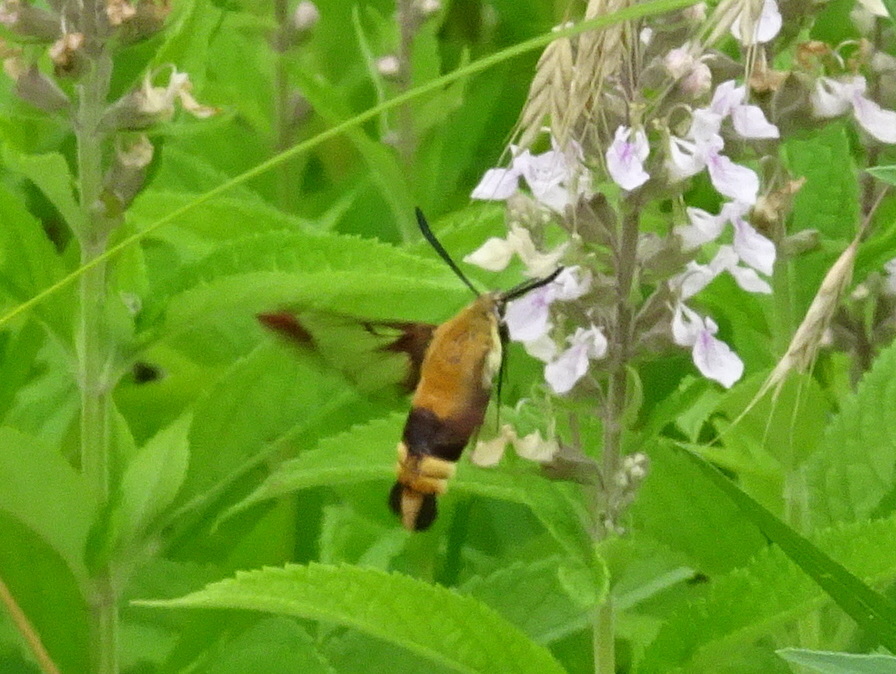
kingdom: Animalia
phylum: Arthropoda
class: Insecta
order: Lepidoptera
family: Sphingidae
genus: Hemaris
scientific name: Hemaris diffinis
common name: Bumblebee moth
